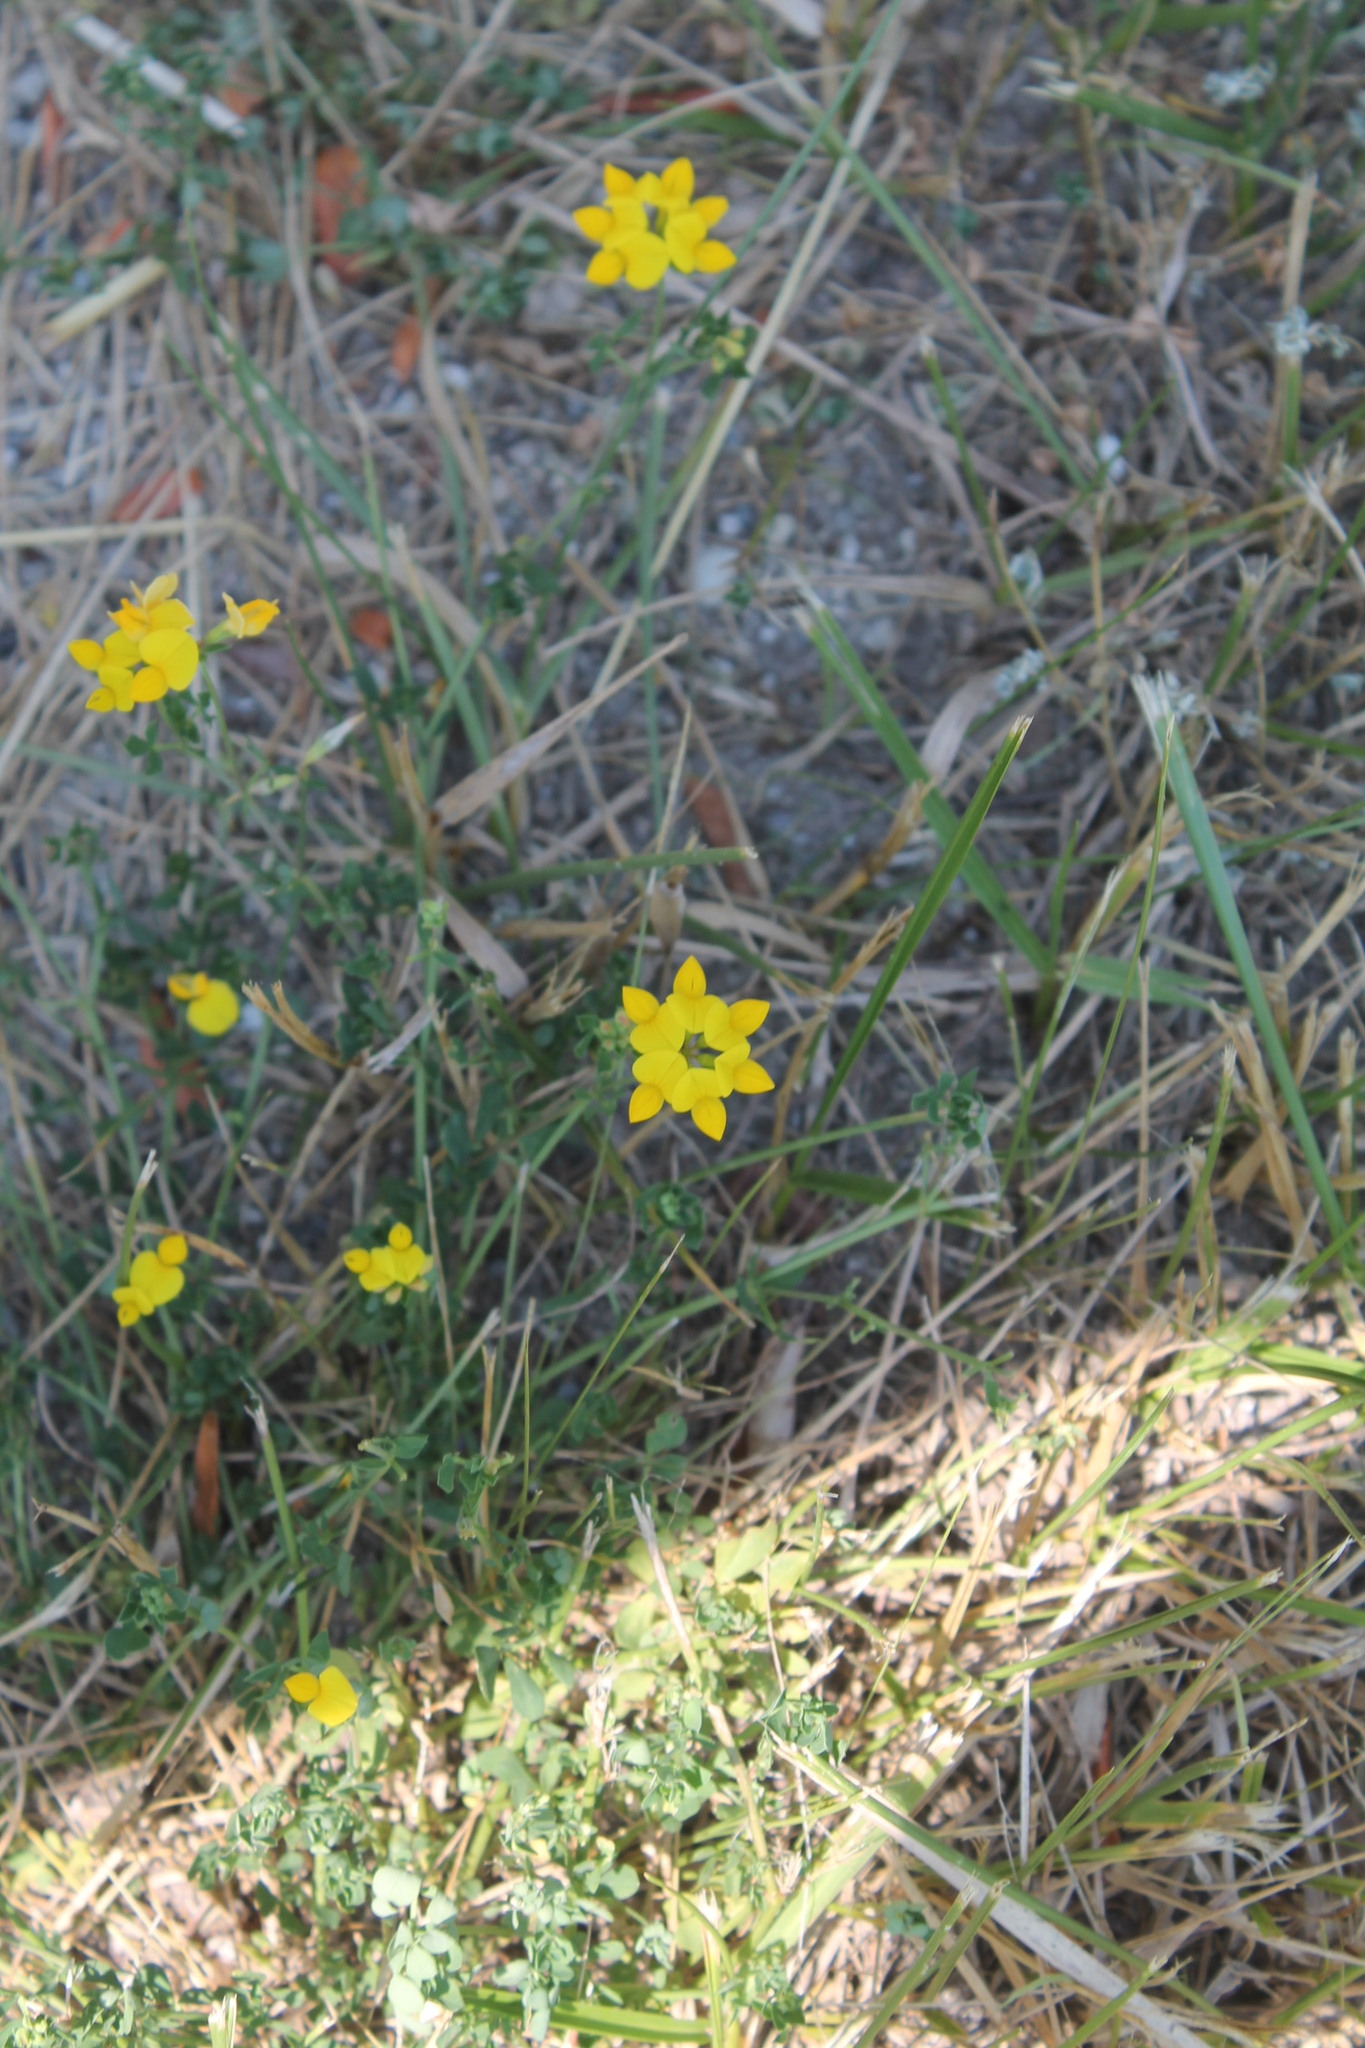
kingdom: Plantae
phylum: Tracheophyta
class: Magnoliopsida
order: Fabales
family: Fabaceae
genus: Lotus
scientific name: Lotus corniculatus
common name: Common bird's-foot-trefoil
